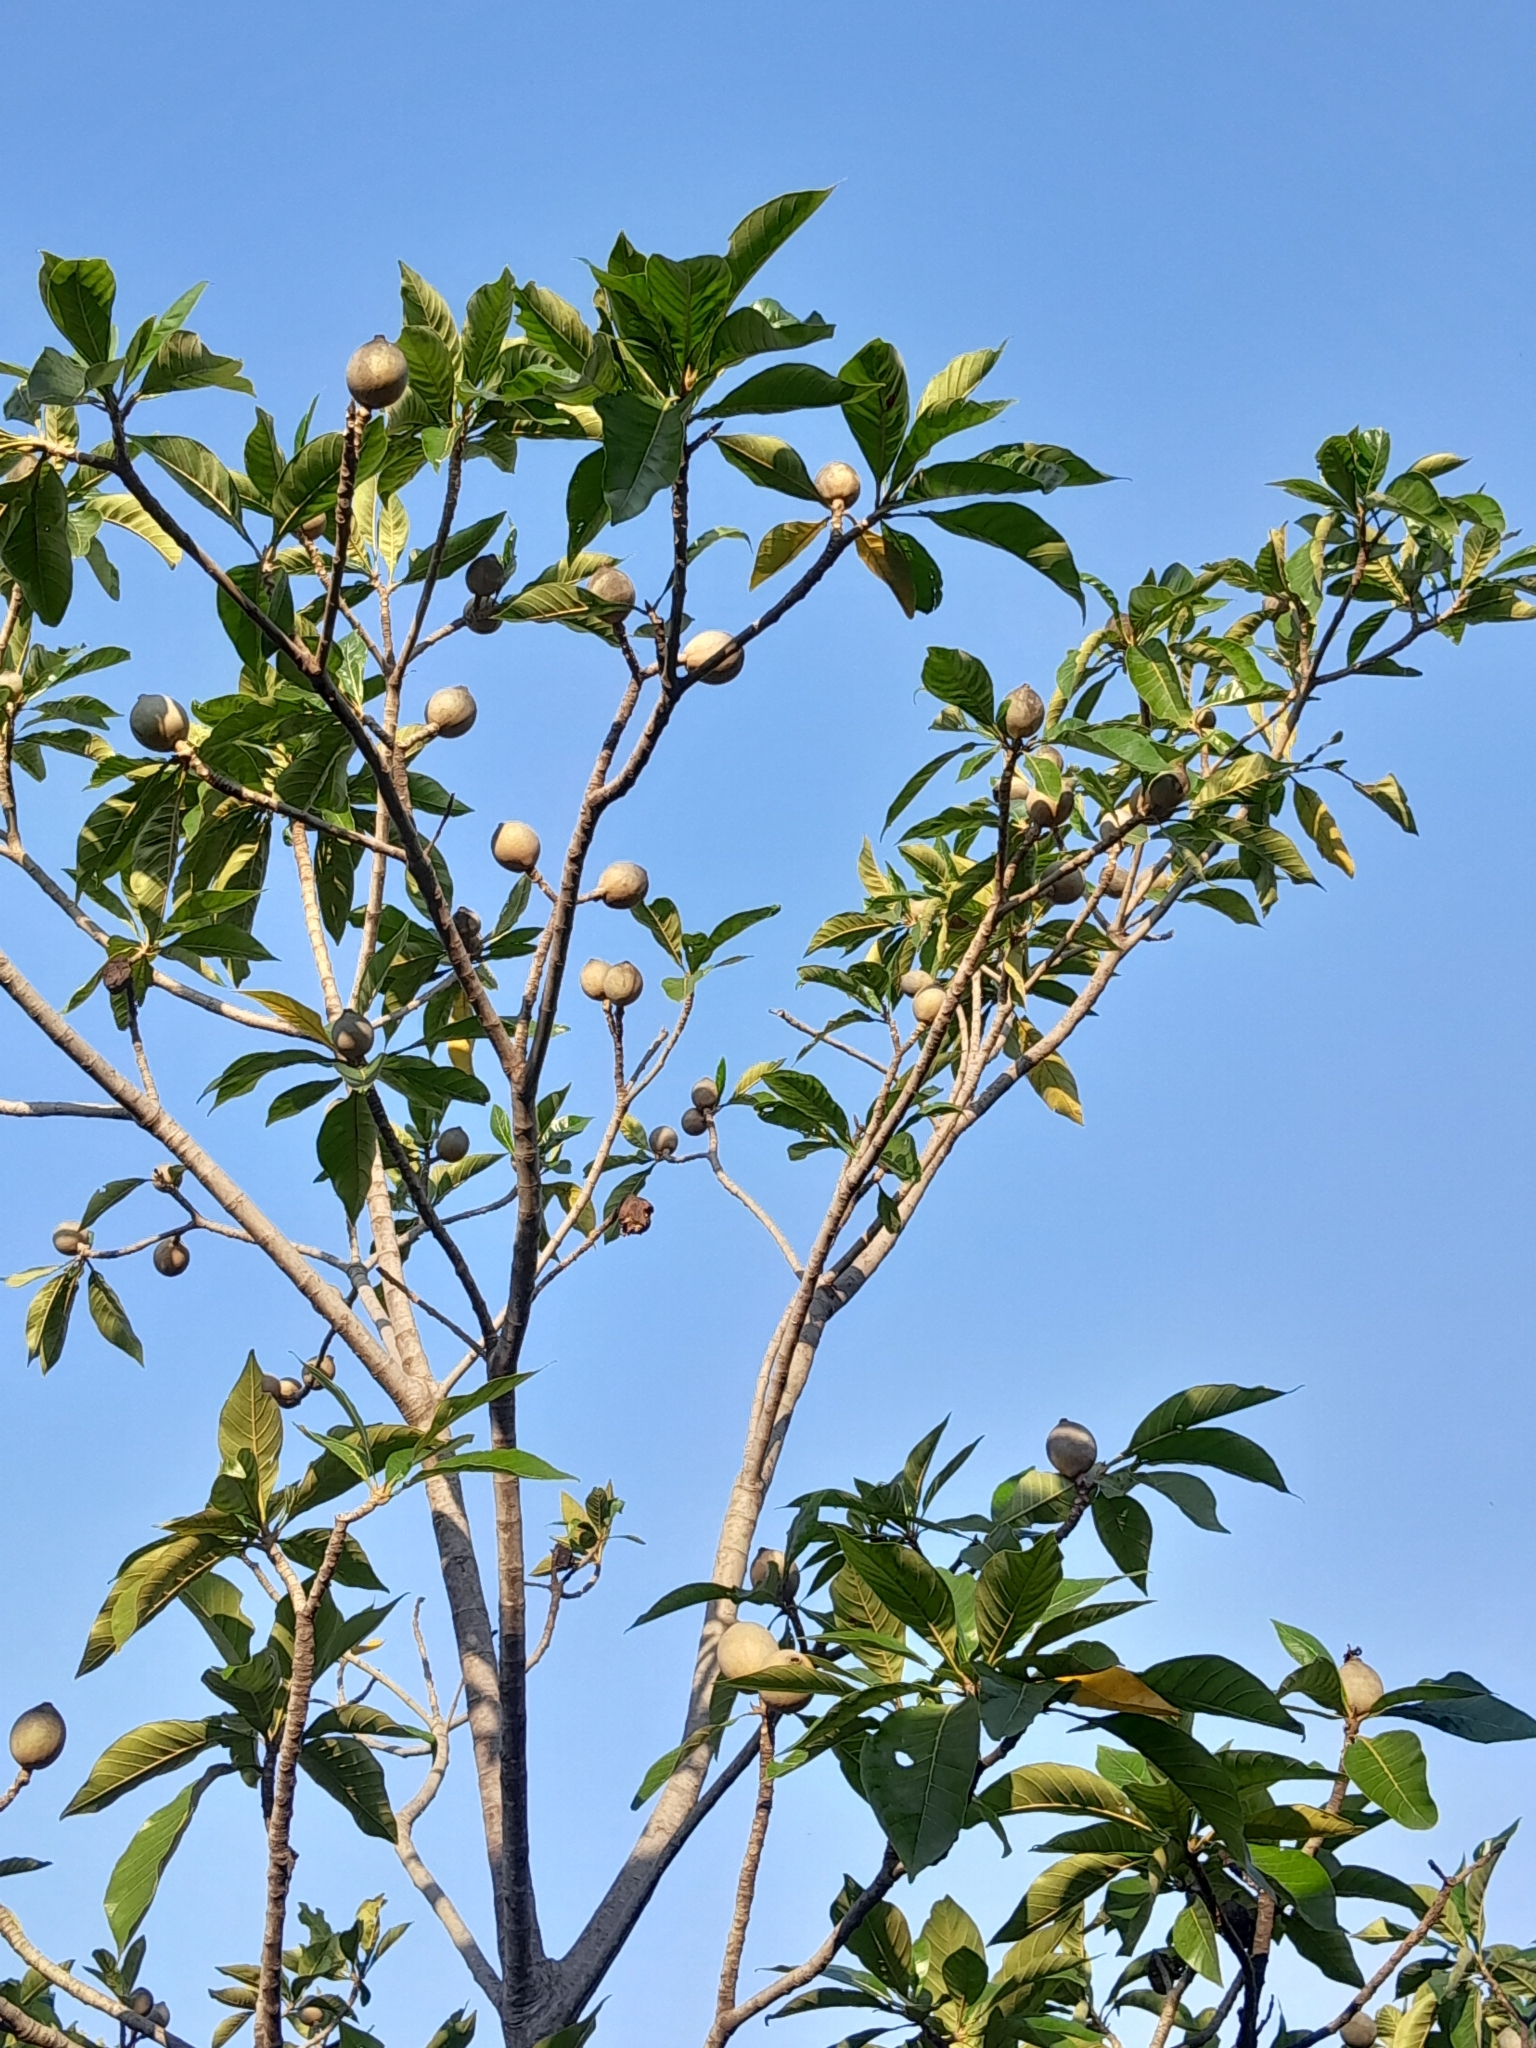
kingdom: Plantae
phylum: Tracheophyta
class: Magnoliopsida
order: Gentianales
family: Rubiaceae
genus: Genipa
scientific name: Genipa americana
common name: Genipap
